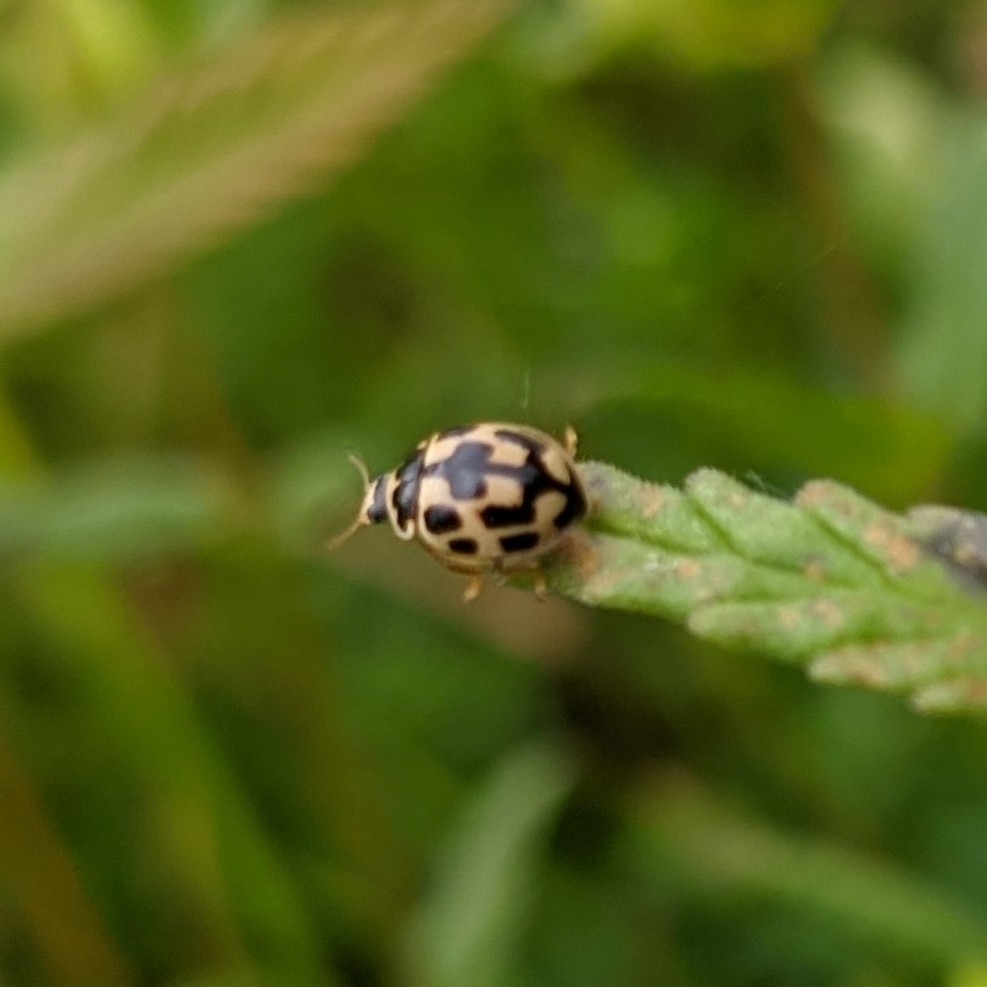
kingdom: Animalia
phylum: Arthropoda
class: Insecta
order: Coleoptera
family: Coccinellidae
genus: Propylaea
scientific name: Propylaea quatuordecimpunctata
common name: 14-spotted ladybird beetle
